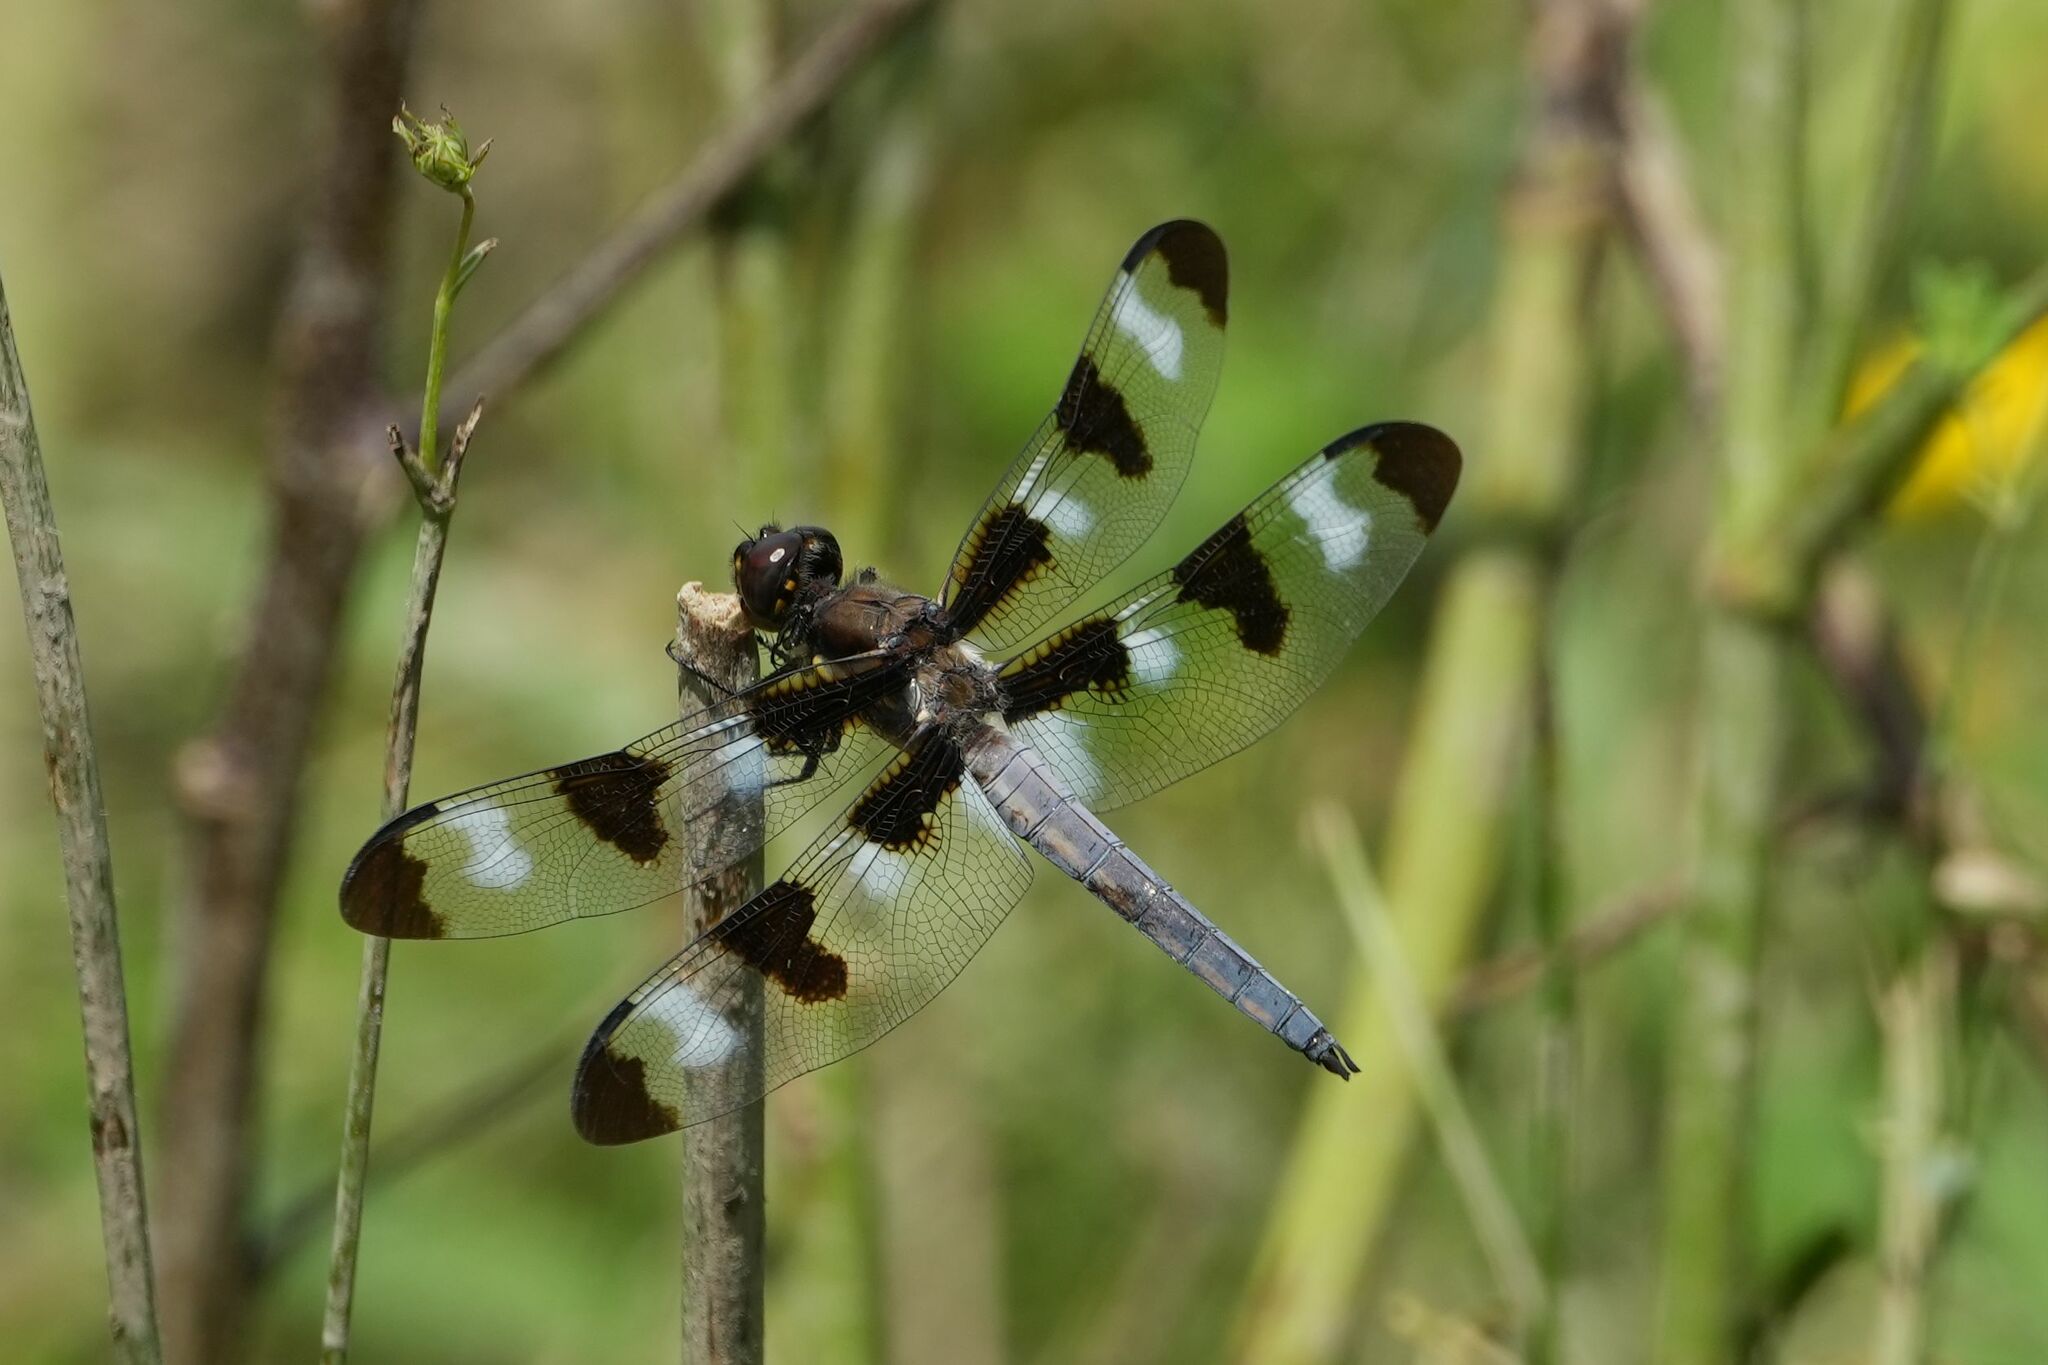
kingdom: Animalia
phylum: Arthropoda
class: Insecta
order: Odonata
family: Libellulidae
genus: Libellula
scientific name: Libellula pulchella
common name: Twelve-spotted skimmer
